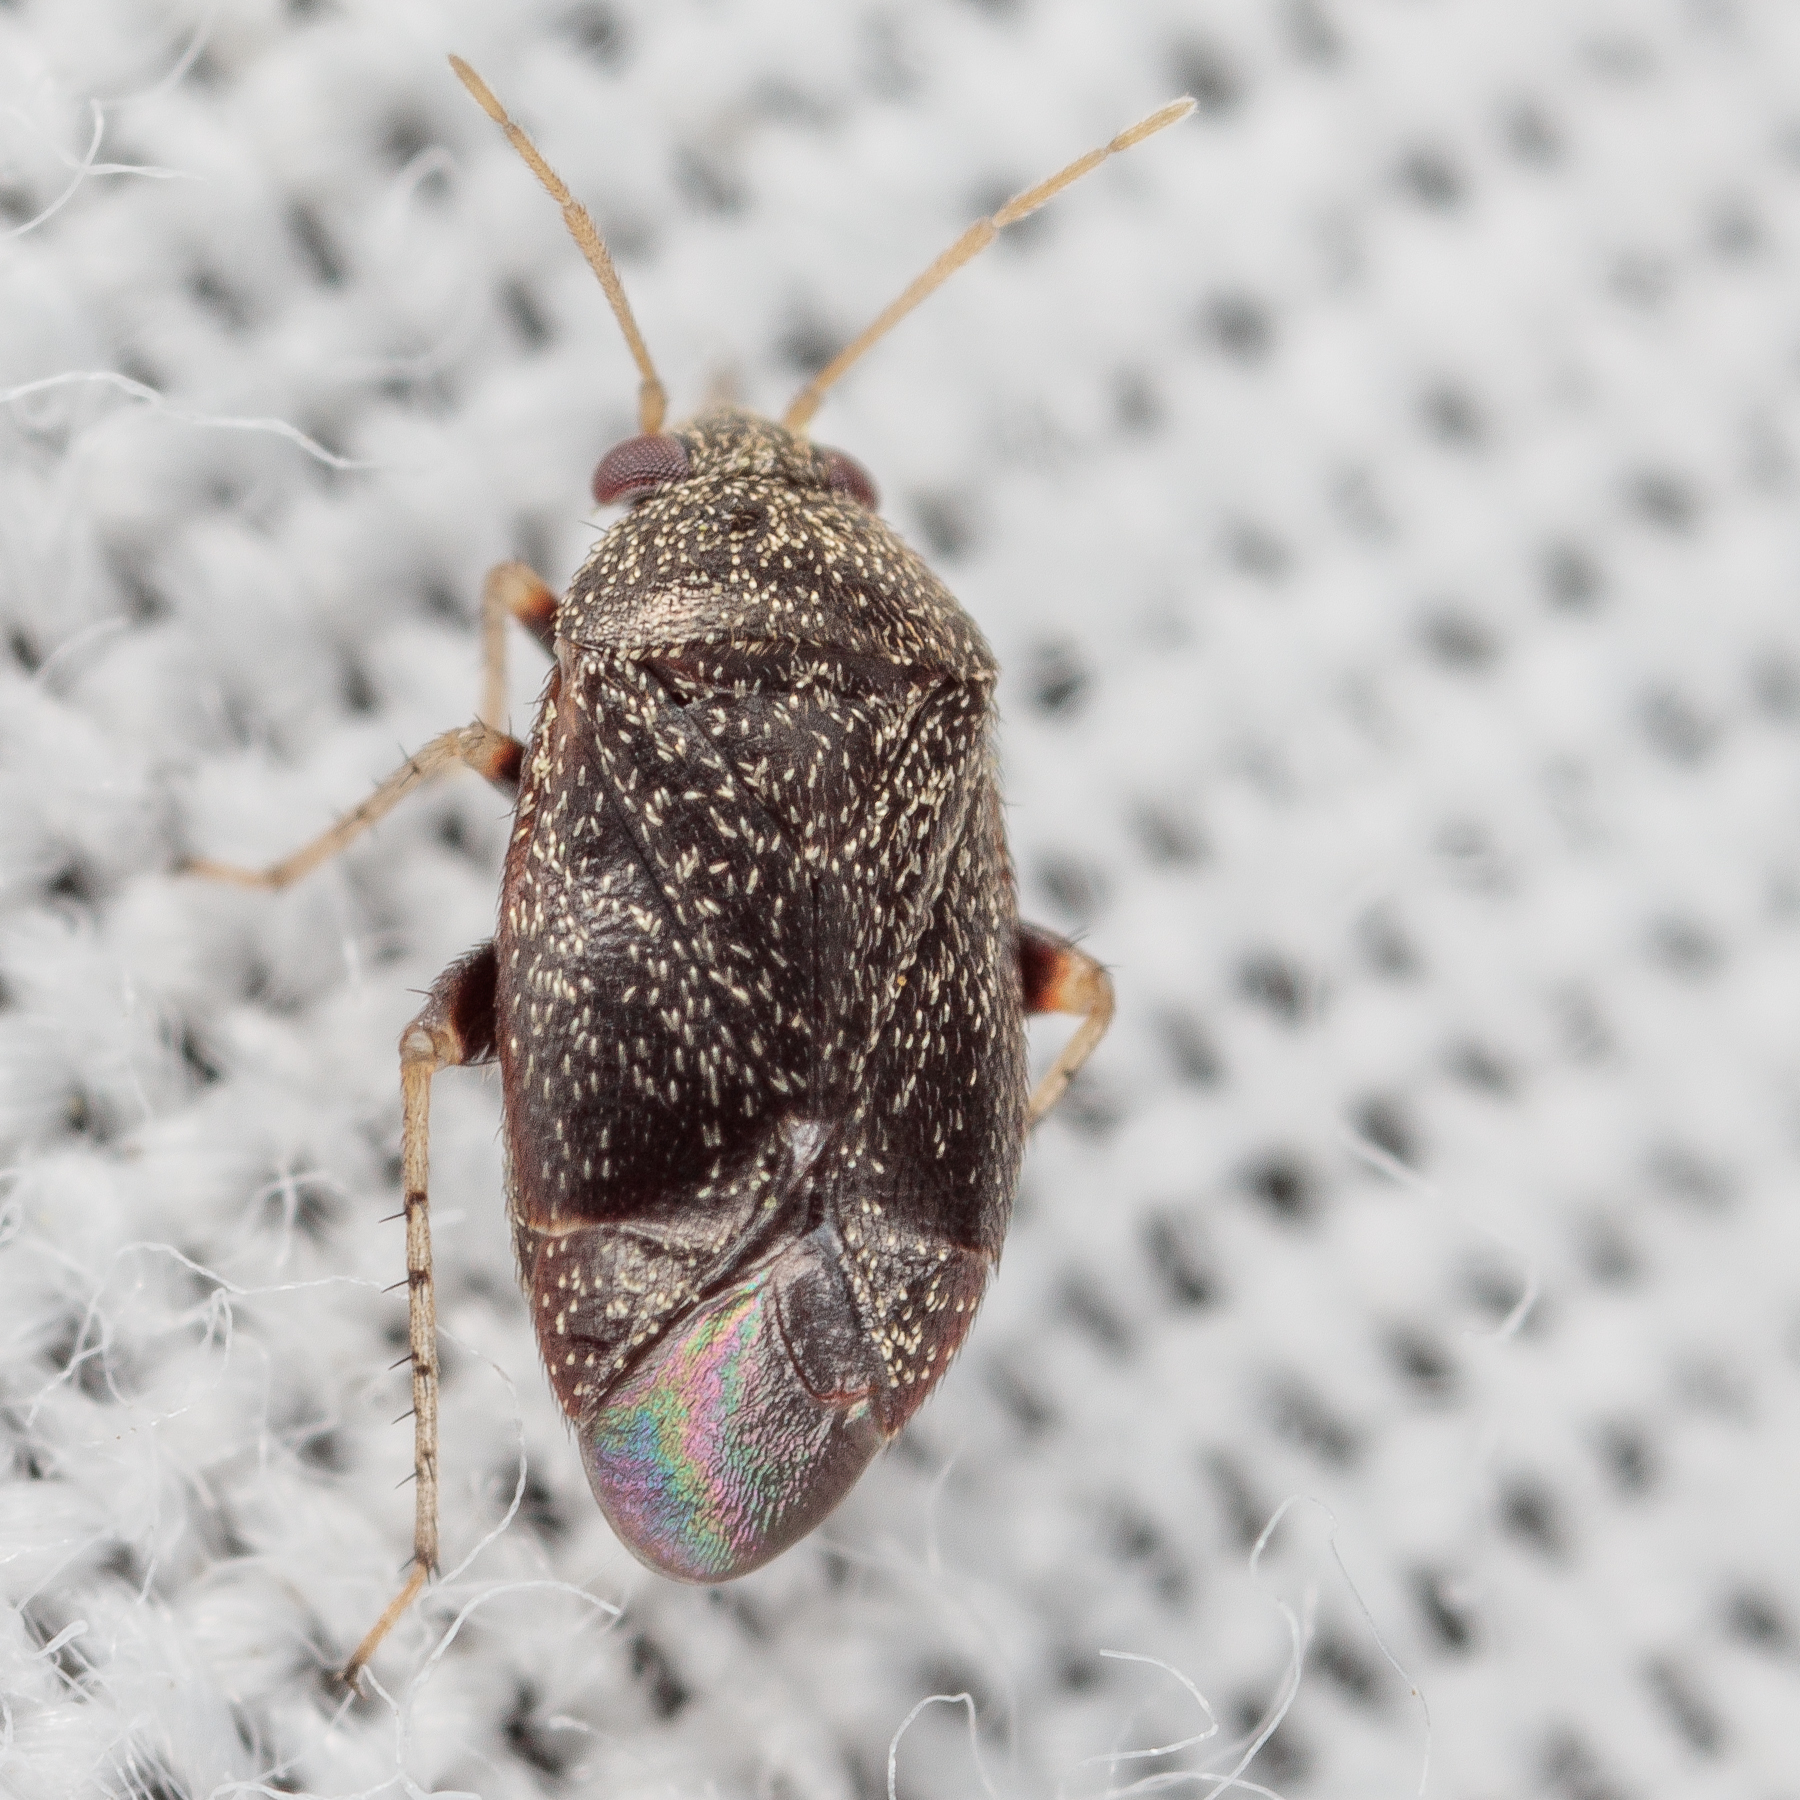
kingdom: Animalia
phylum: Arthropoda
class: Insecta
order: Hemiptera
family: Miridae
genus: Atractotomus
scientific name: Atractotomus miniatus
